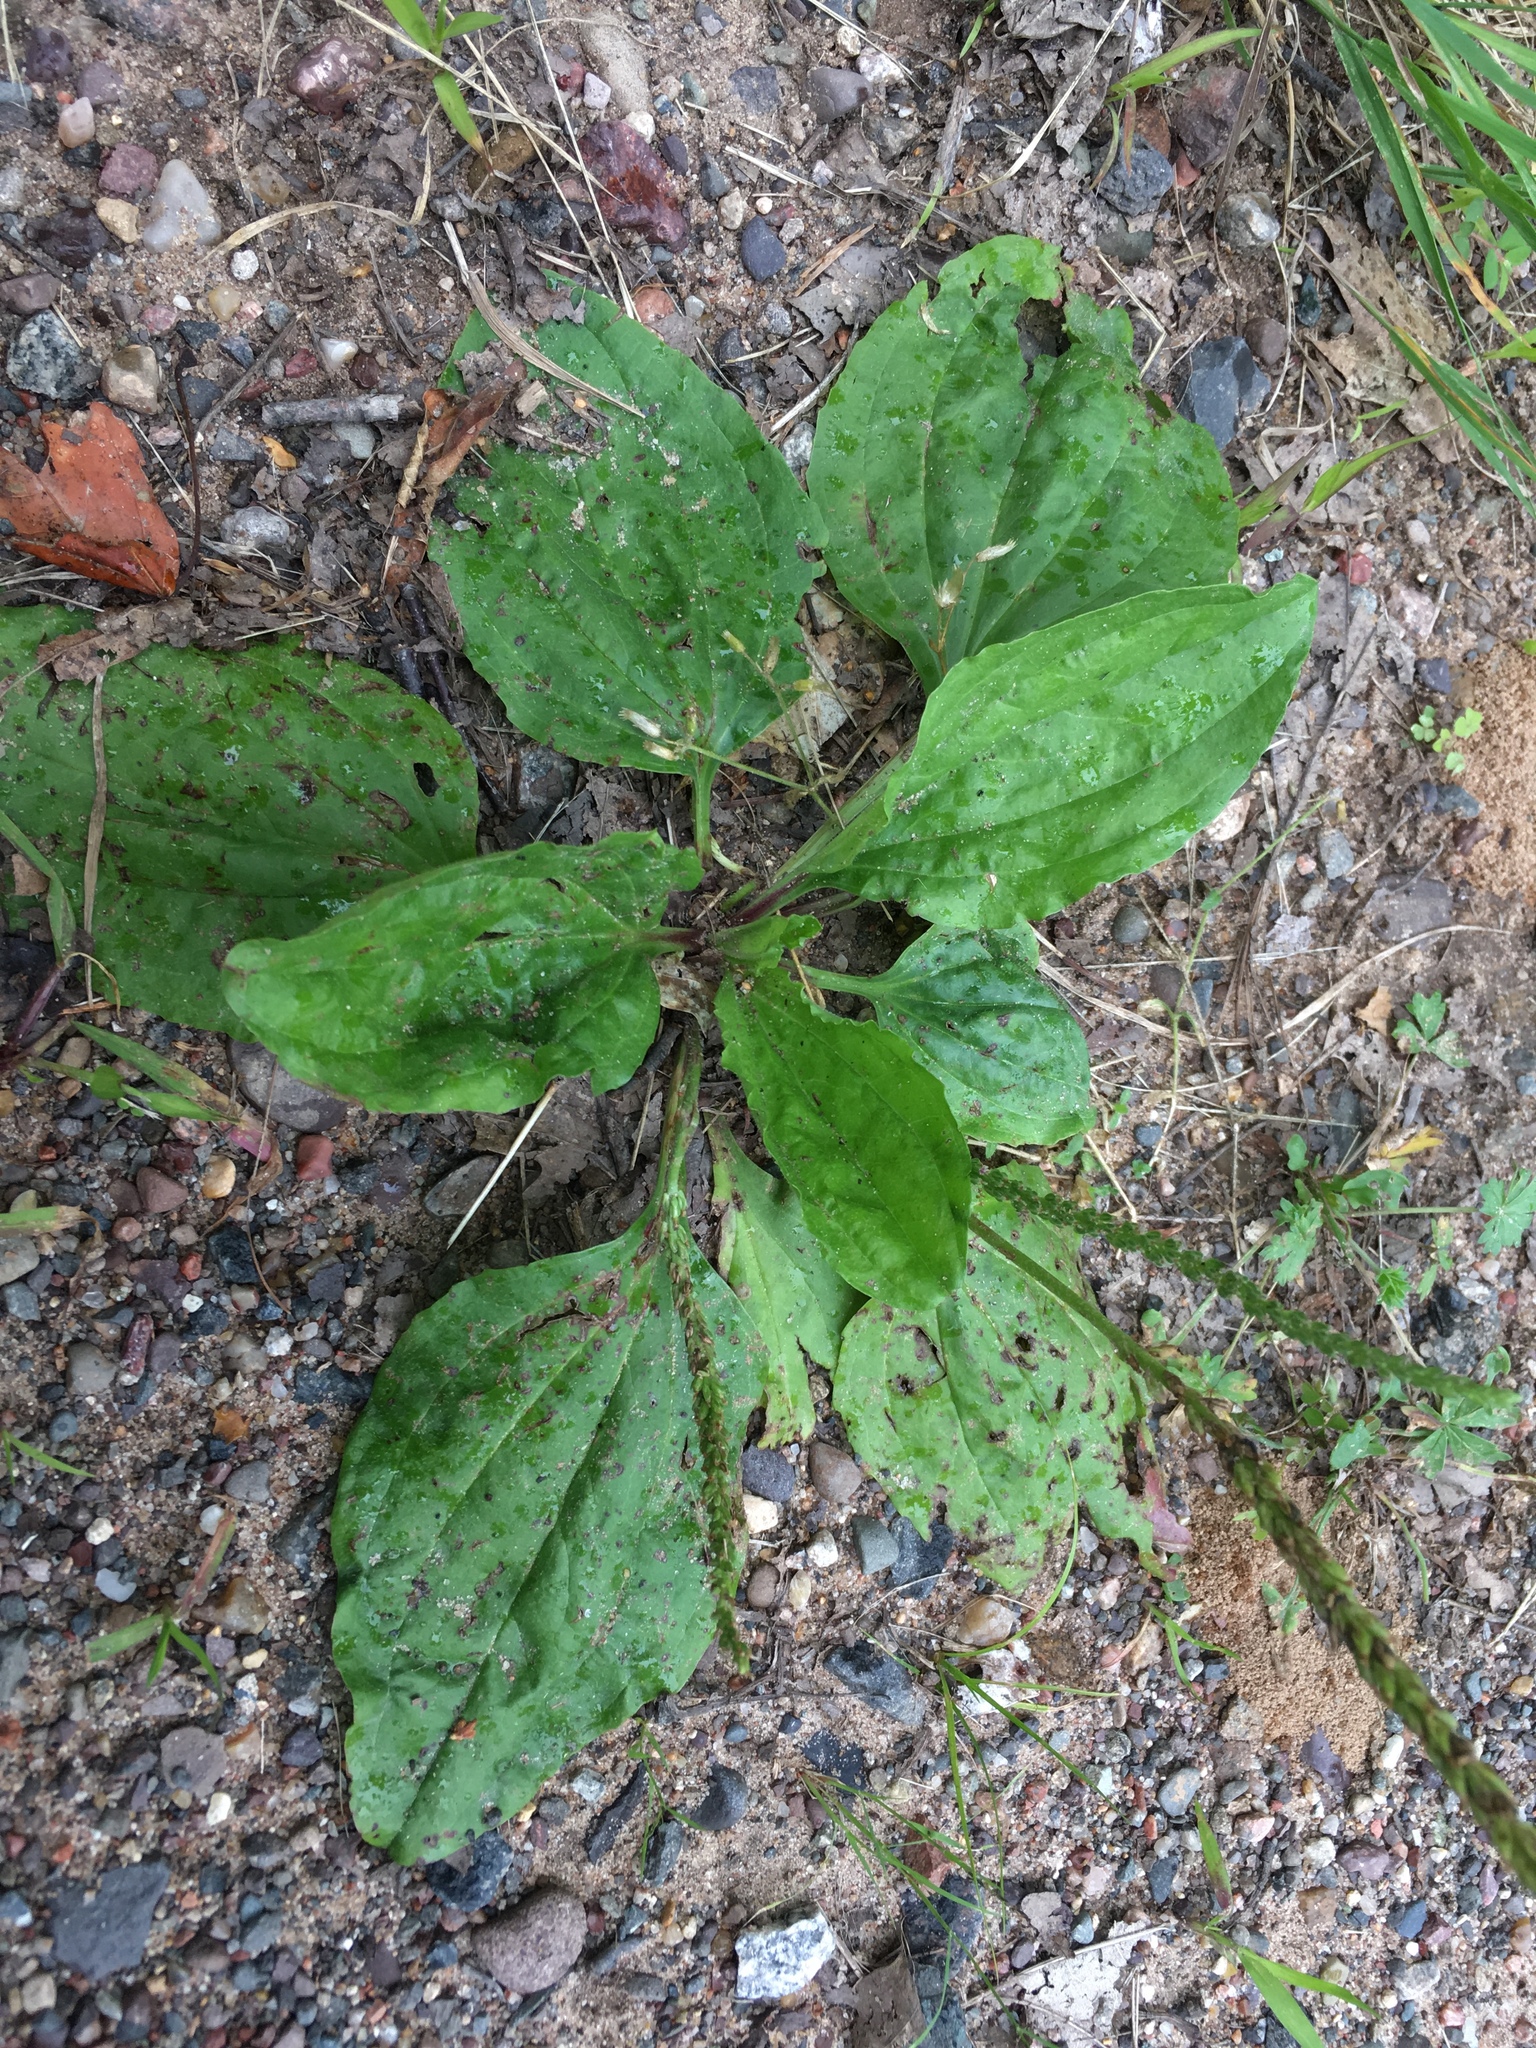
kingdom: Plantae
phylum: Tracheophyta
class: Magnoliopsida
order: Lamiales
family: Plantaginaceae
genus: Plantago
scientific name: Plantago rugelii
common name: American plantain
